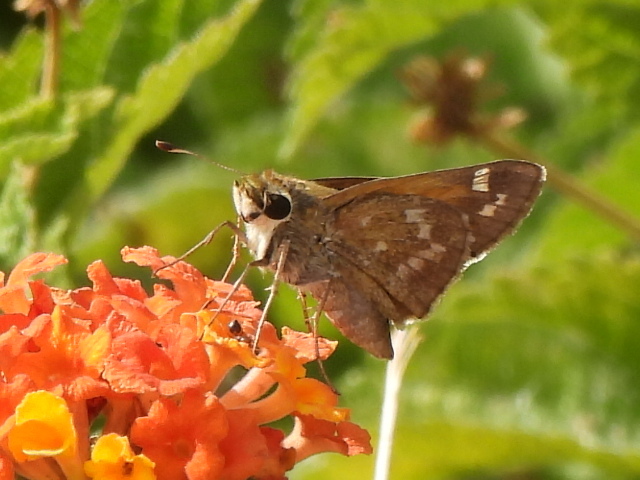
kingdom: Animalia
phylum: Arthropoda
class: Insecta
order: Lepidoptera
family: Hesperiidae
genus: Atalopedes
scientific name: Atalopedes
